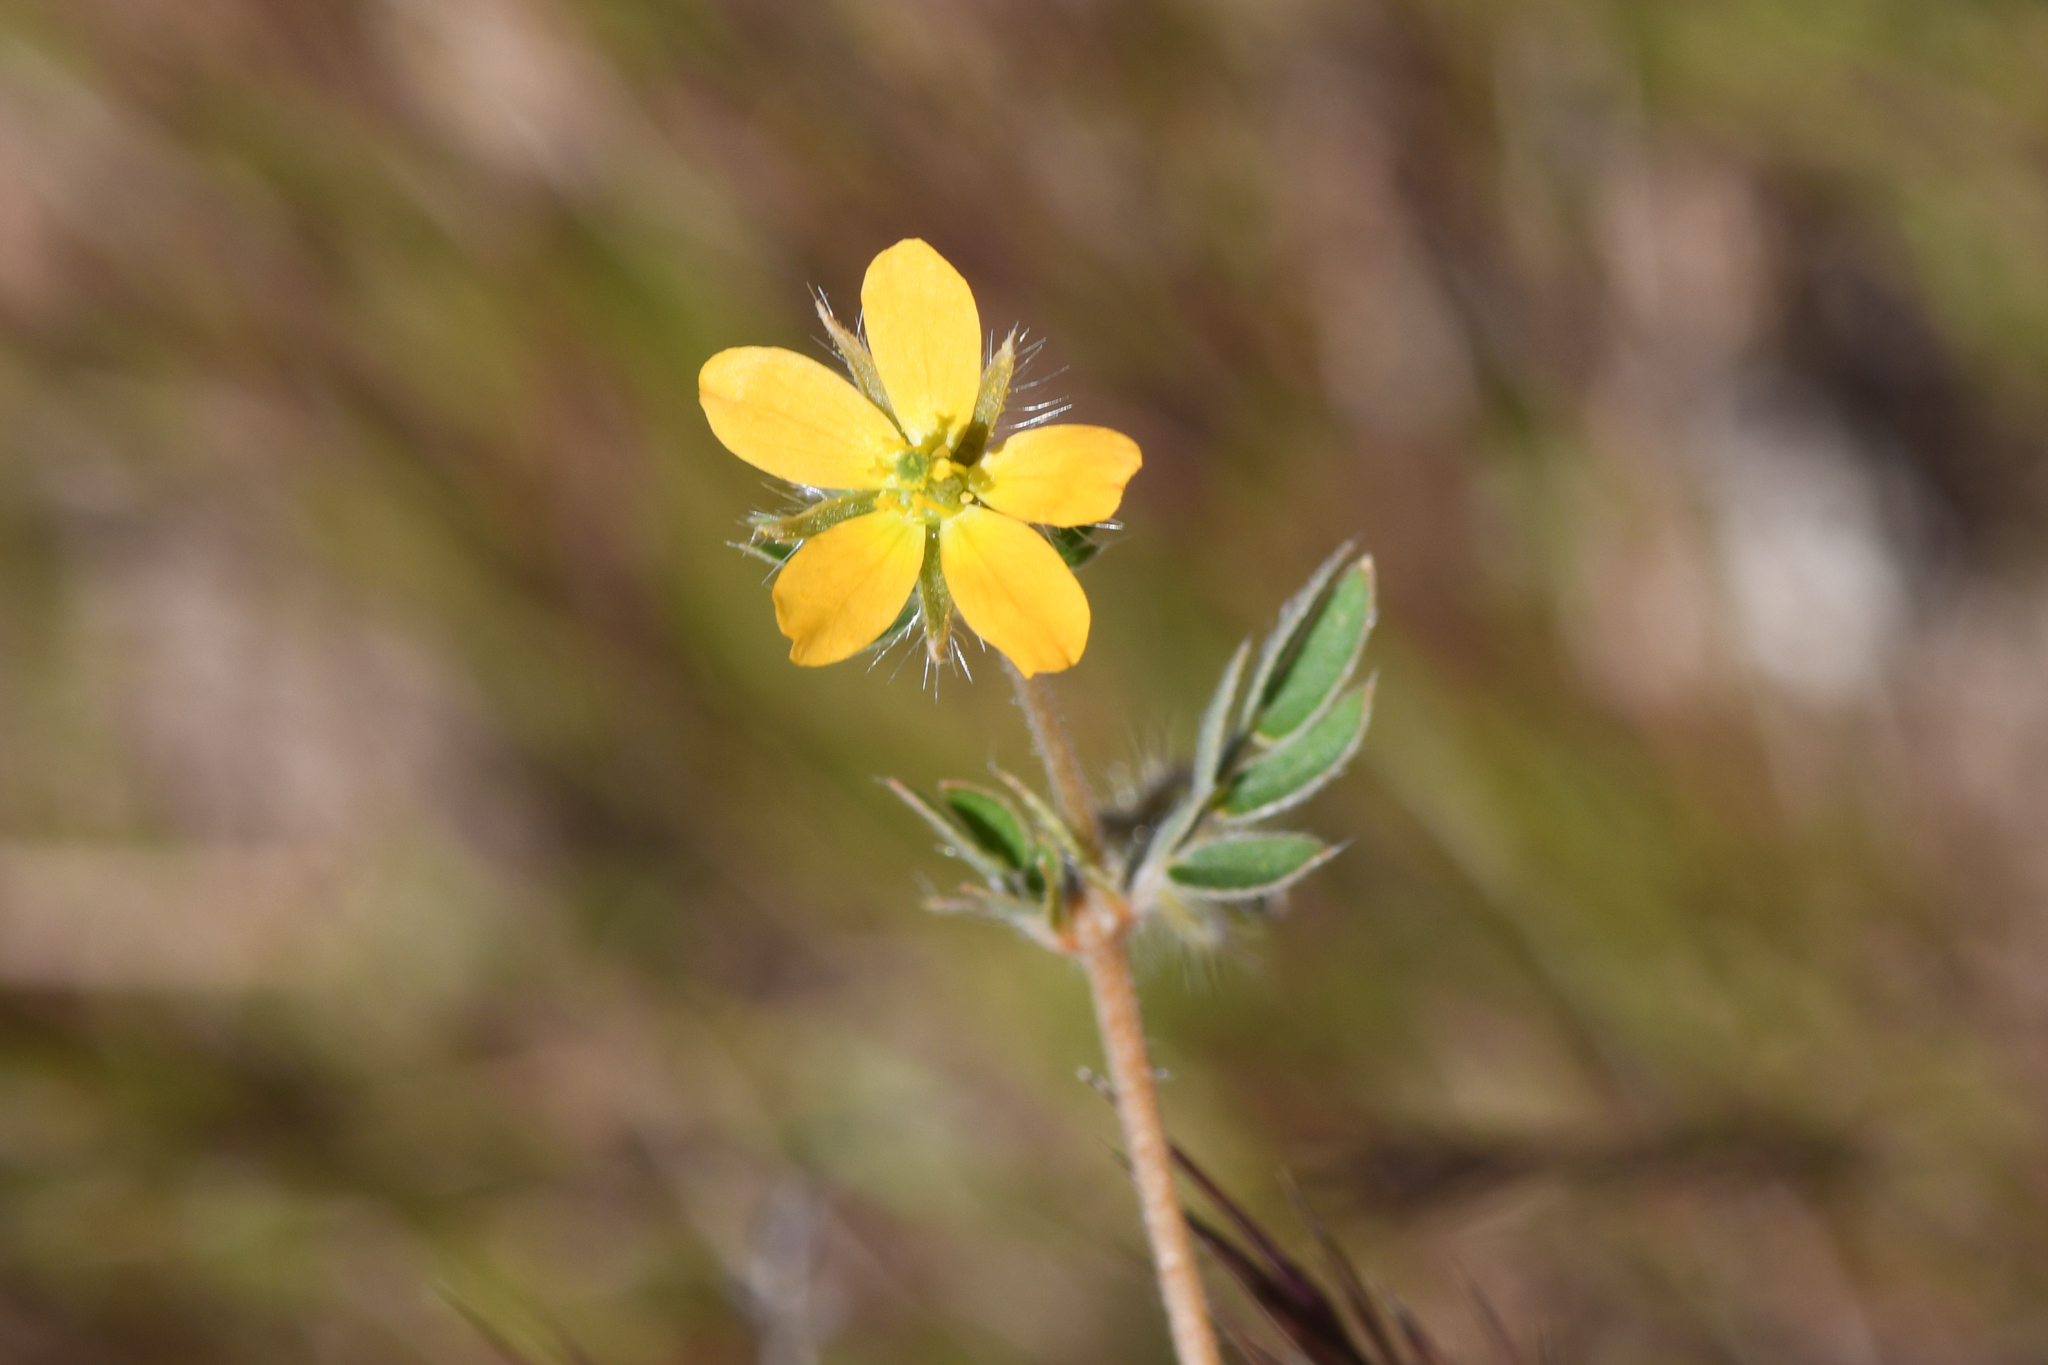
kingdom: Plantae
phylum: Tracheophyta
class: Magnoliopsida
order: Zygophyllales
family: Zygophyllaceae
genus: Kallstroemia
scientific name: Kallstroemia parviflora
